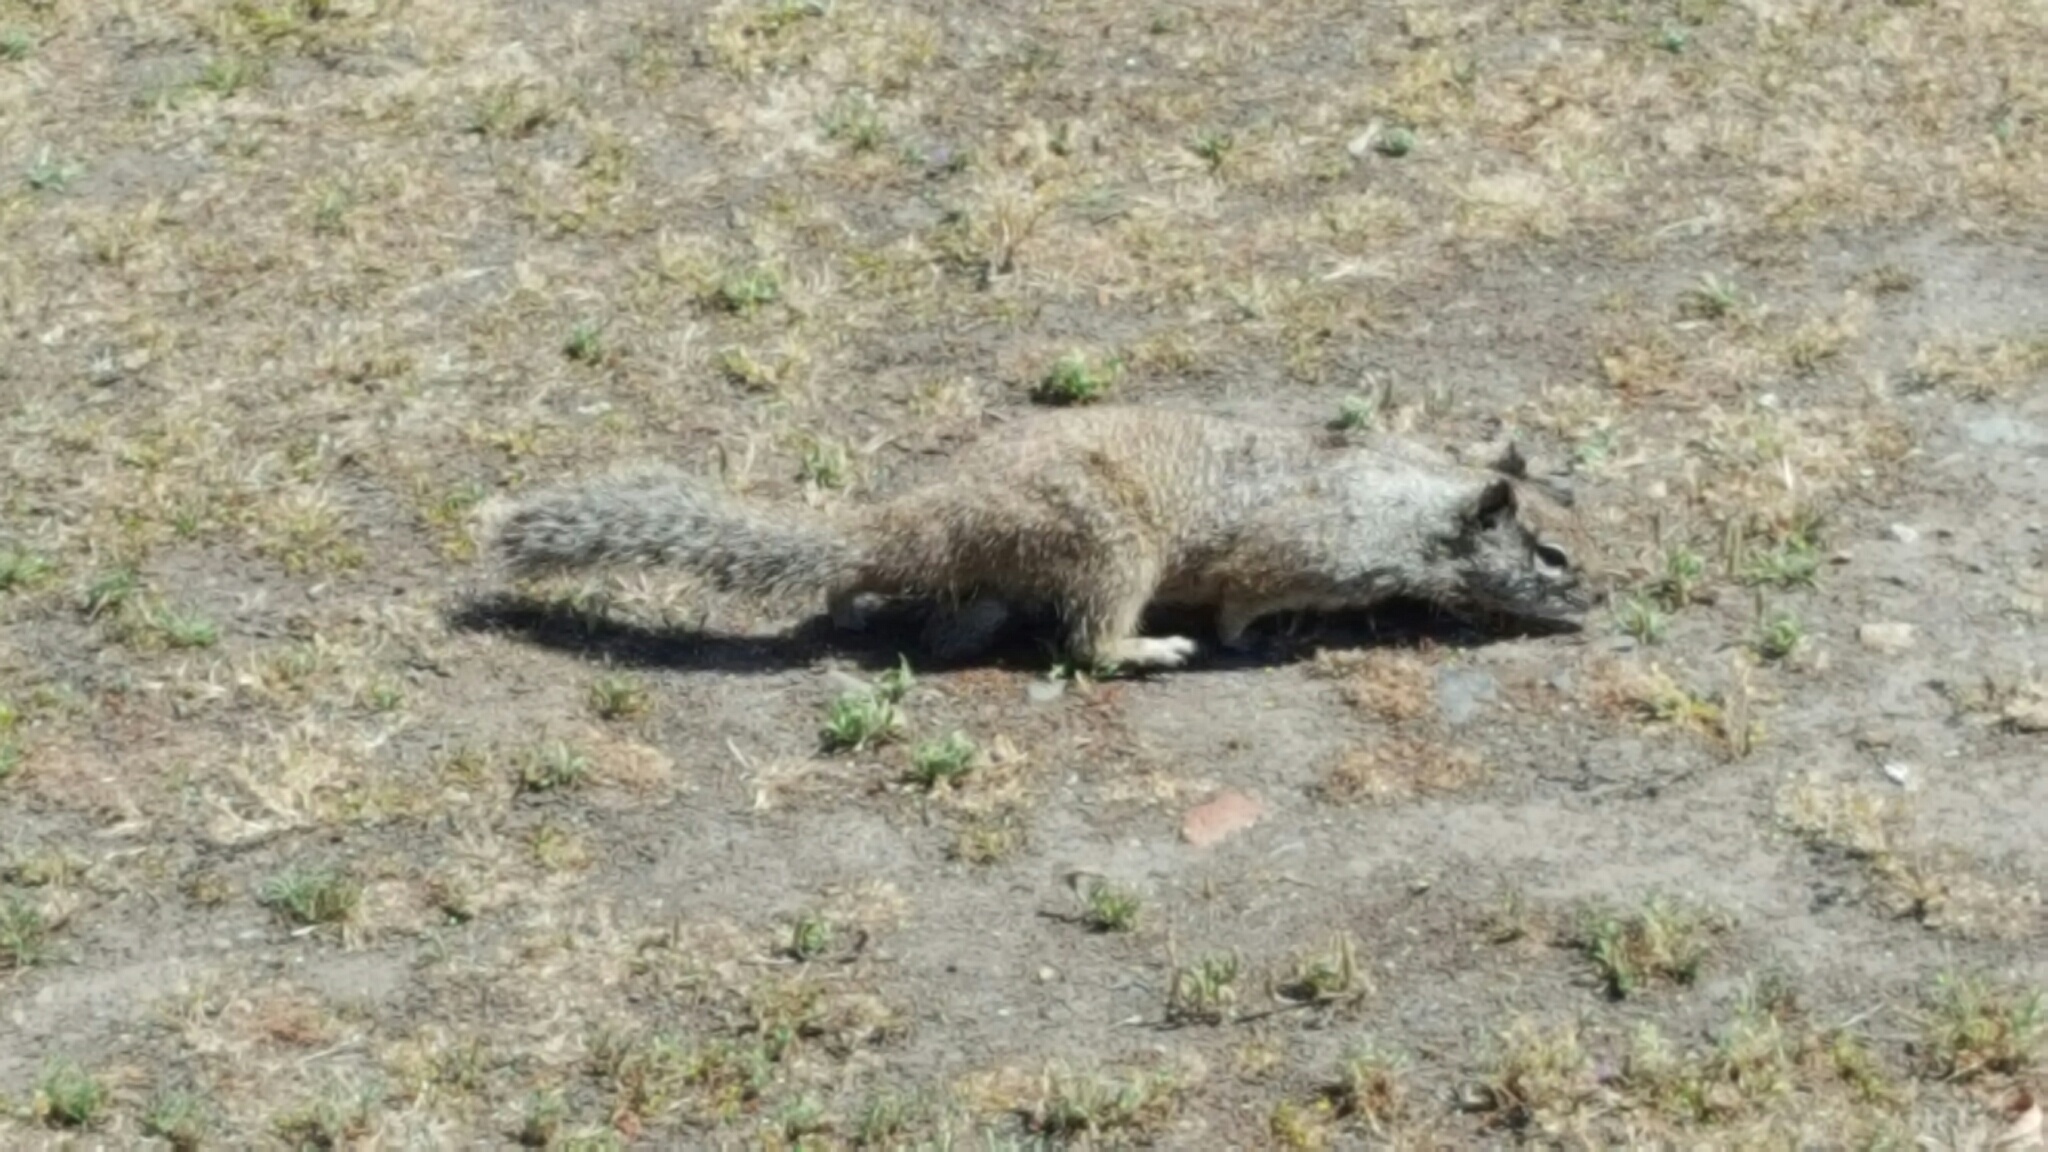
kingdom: Animalia
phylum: Chordata
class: Mammalia
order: Rodentia
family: Sciuridae
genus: Otospermophilus
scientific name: Otospermophilus beecheyi
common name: California ground squirrel
